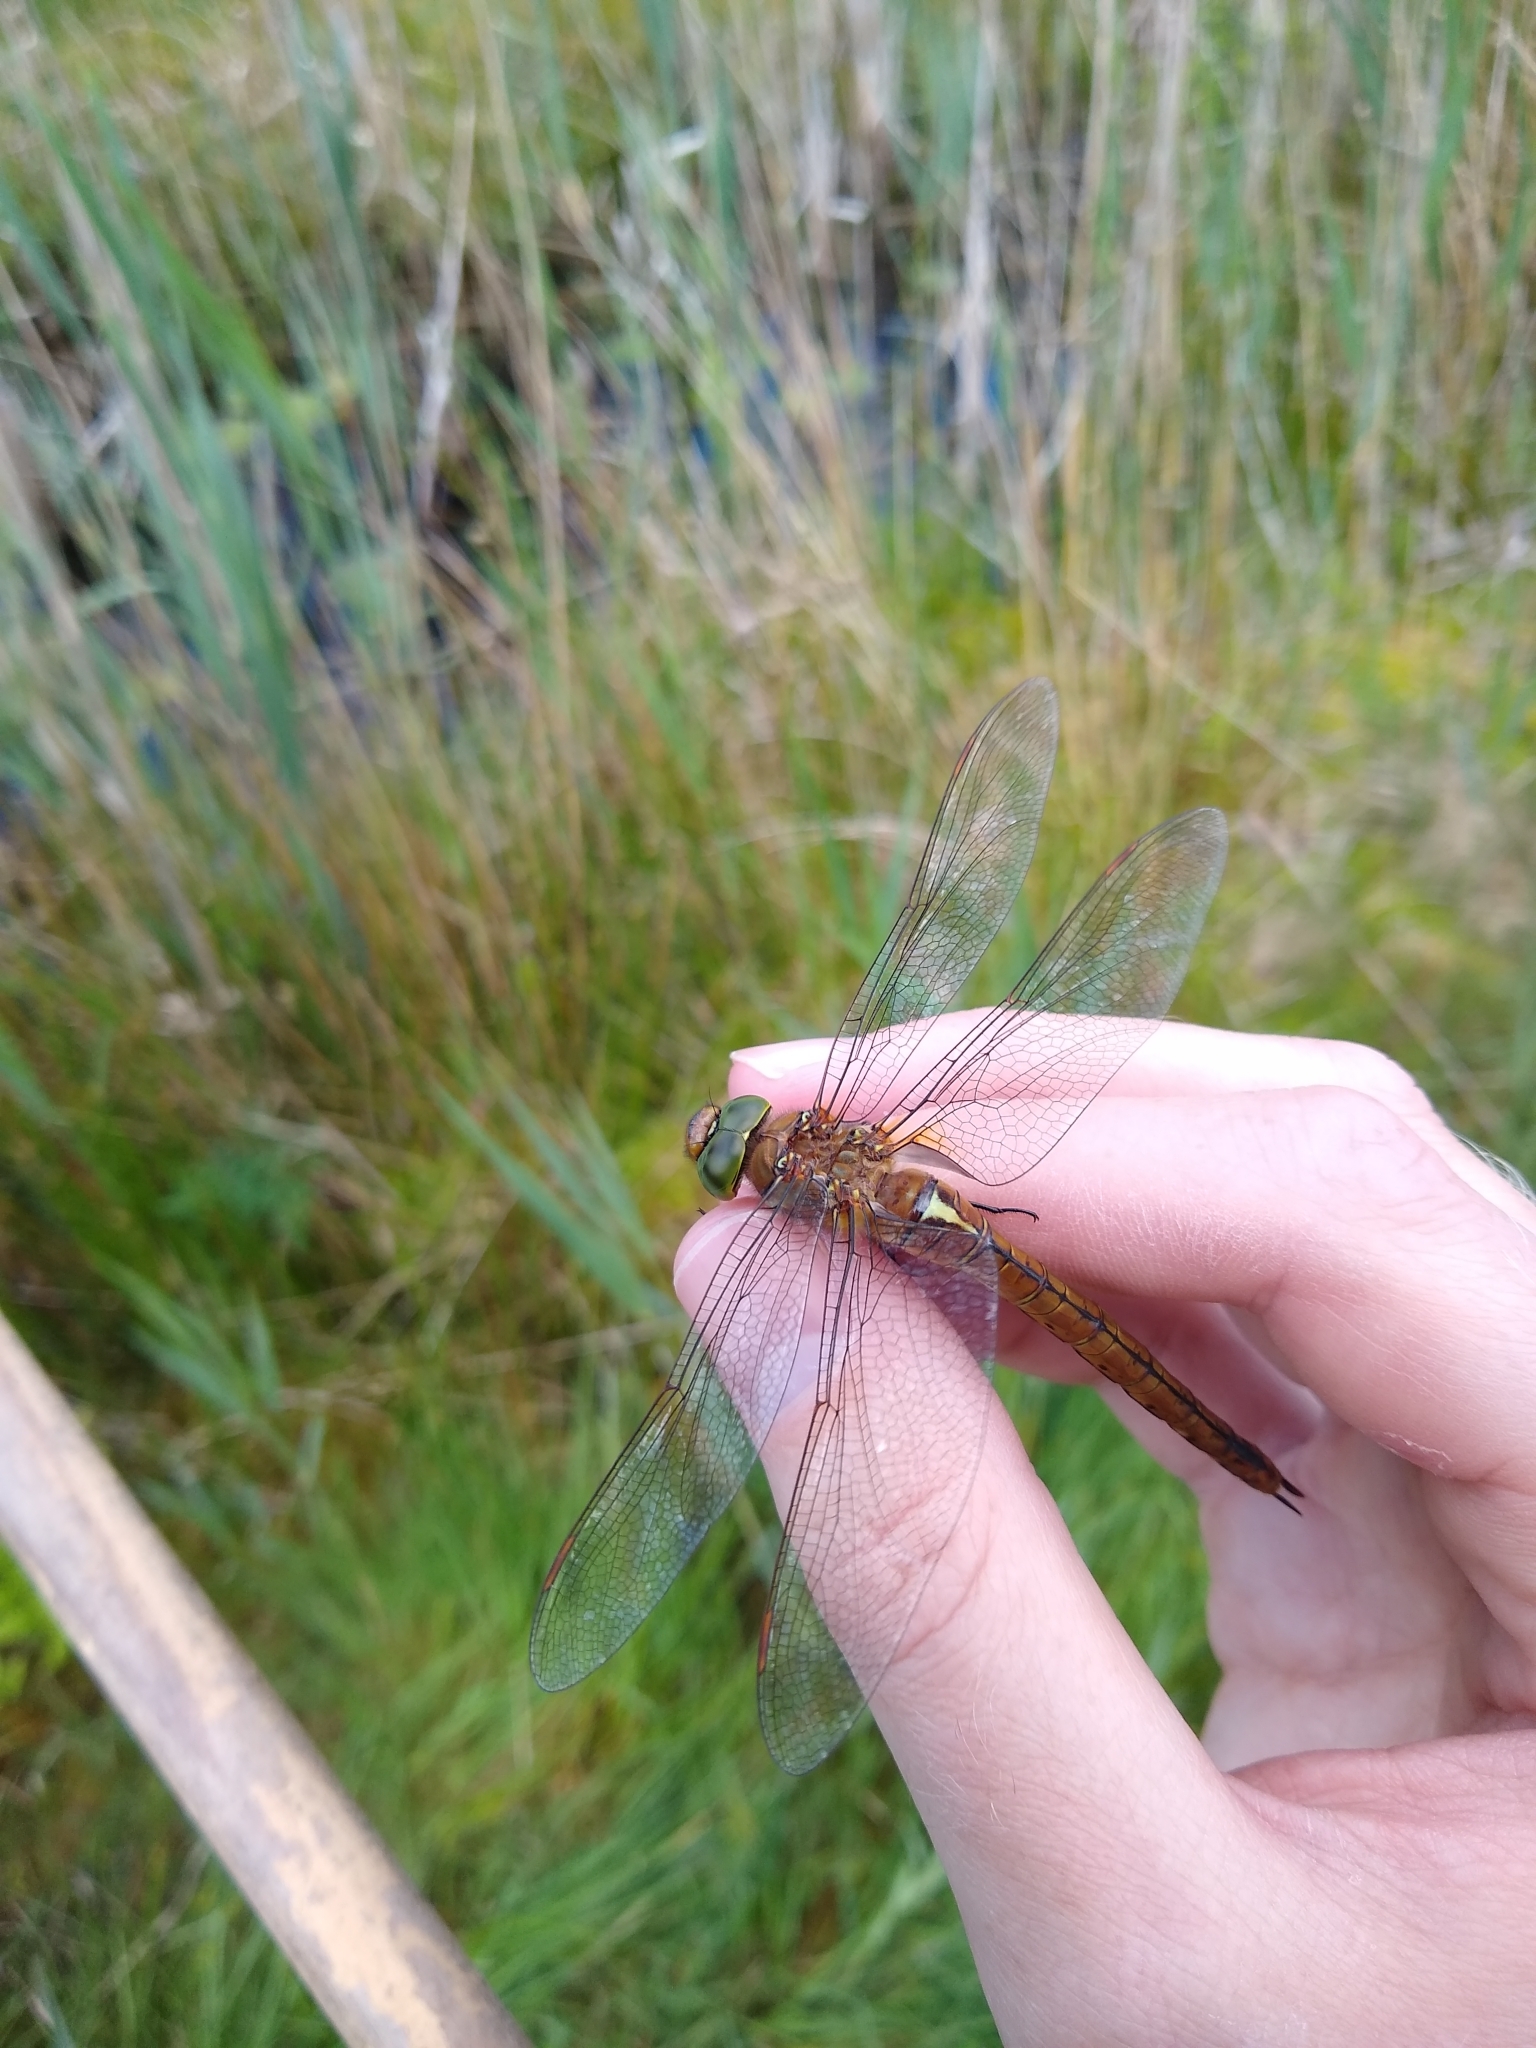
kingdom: Animalia
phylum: Arthropoda
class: Insecta
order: Odonata
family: Aeshnidae
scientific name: Aeshnidae
